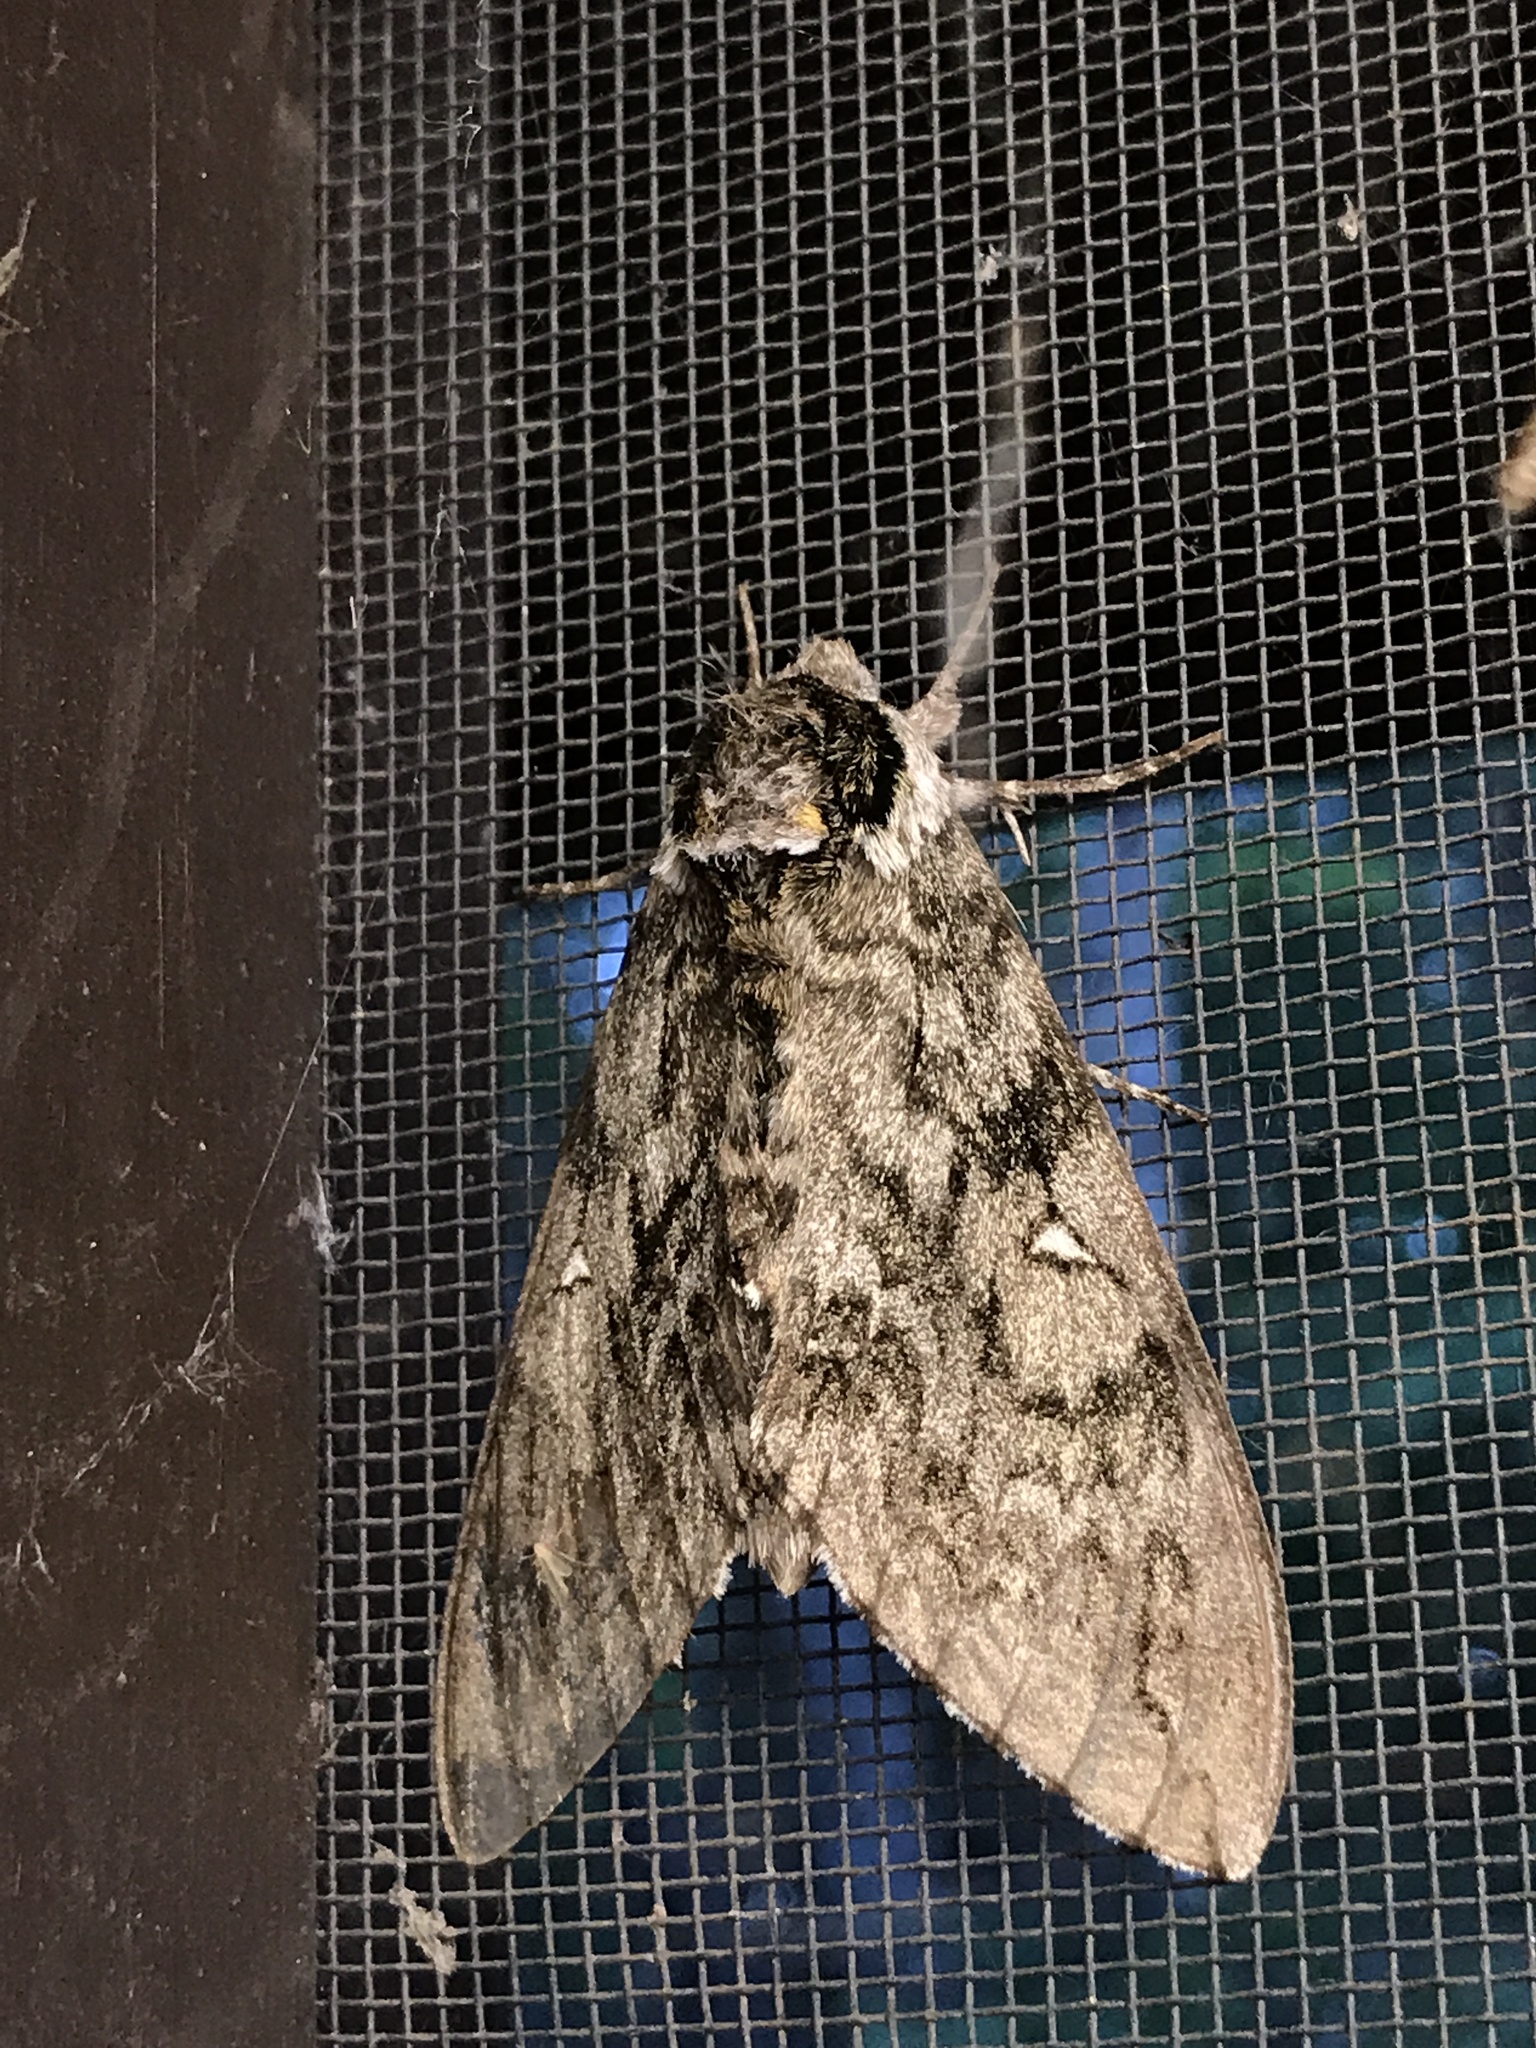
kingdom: Animalia
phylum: Arthropoda
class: Insecta
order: Lepidoptera
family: Sphingidae
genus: Ceratomia
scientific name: Ceratomia undulosa
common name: Waved sphinx
